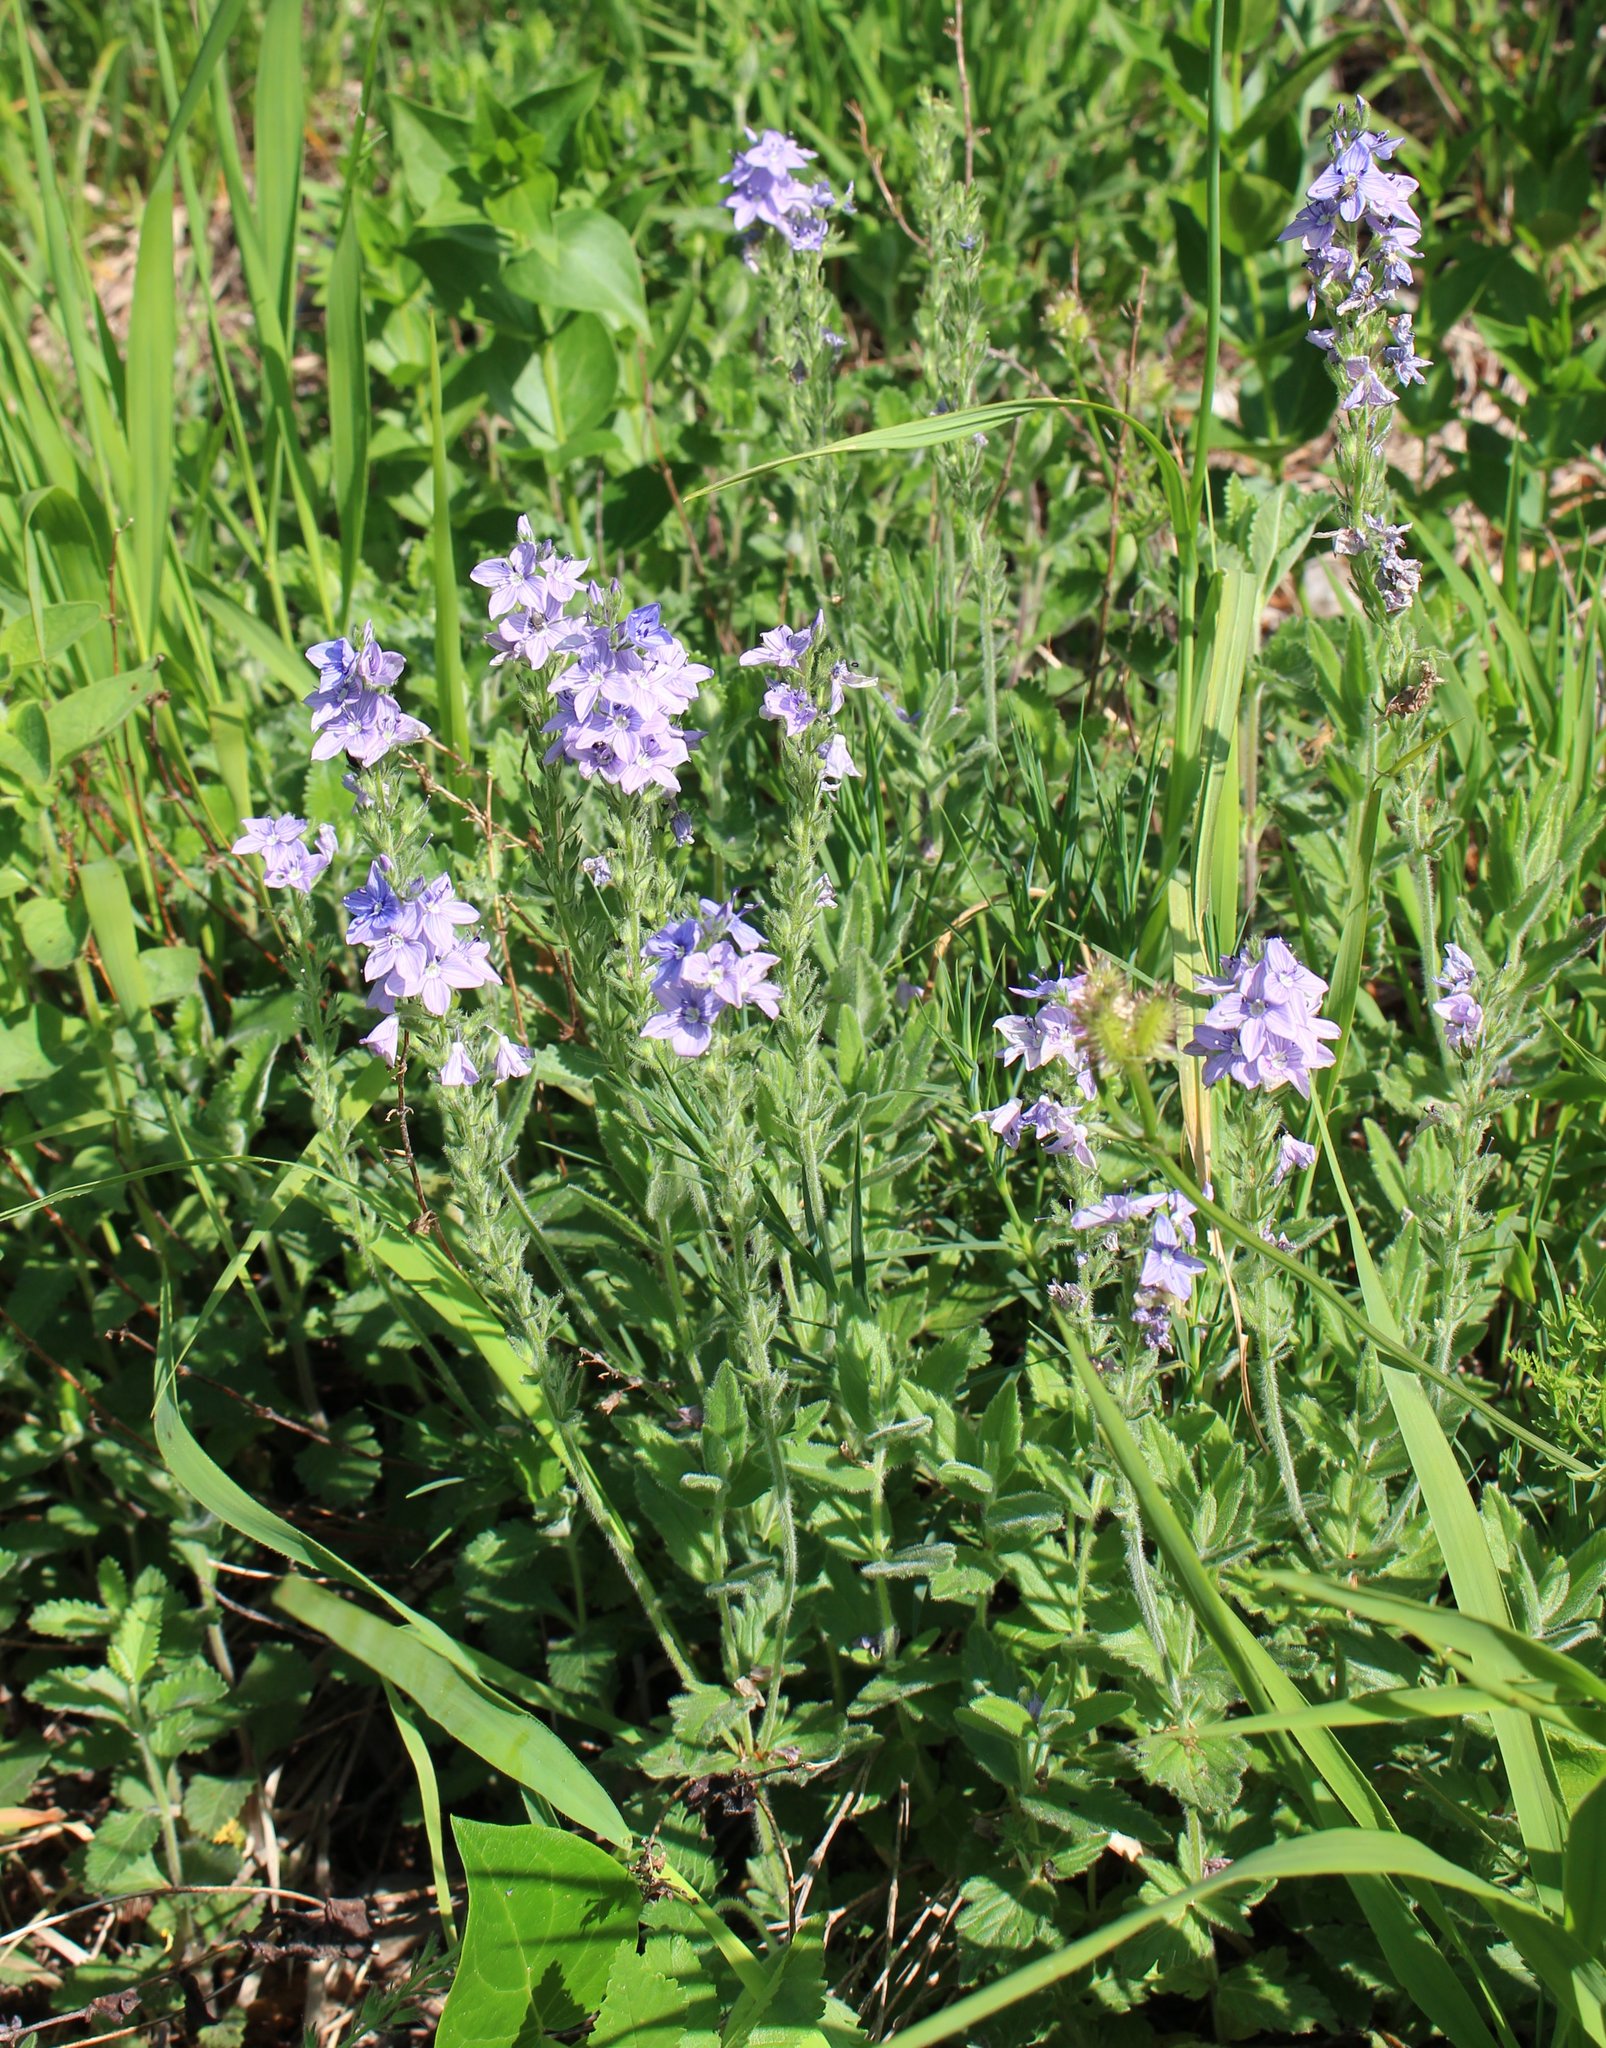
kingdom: Plantae
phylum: Tracheophyta
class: Magnoliopsida
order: Lamiales
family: Plantaginaceae
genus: Veronica
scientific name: Veronica teucrium
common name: Large speedwell
